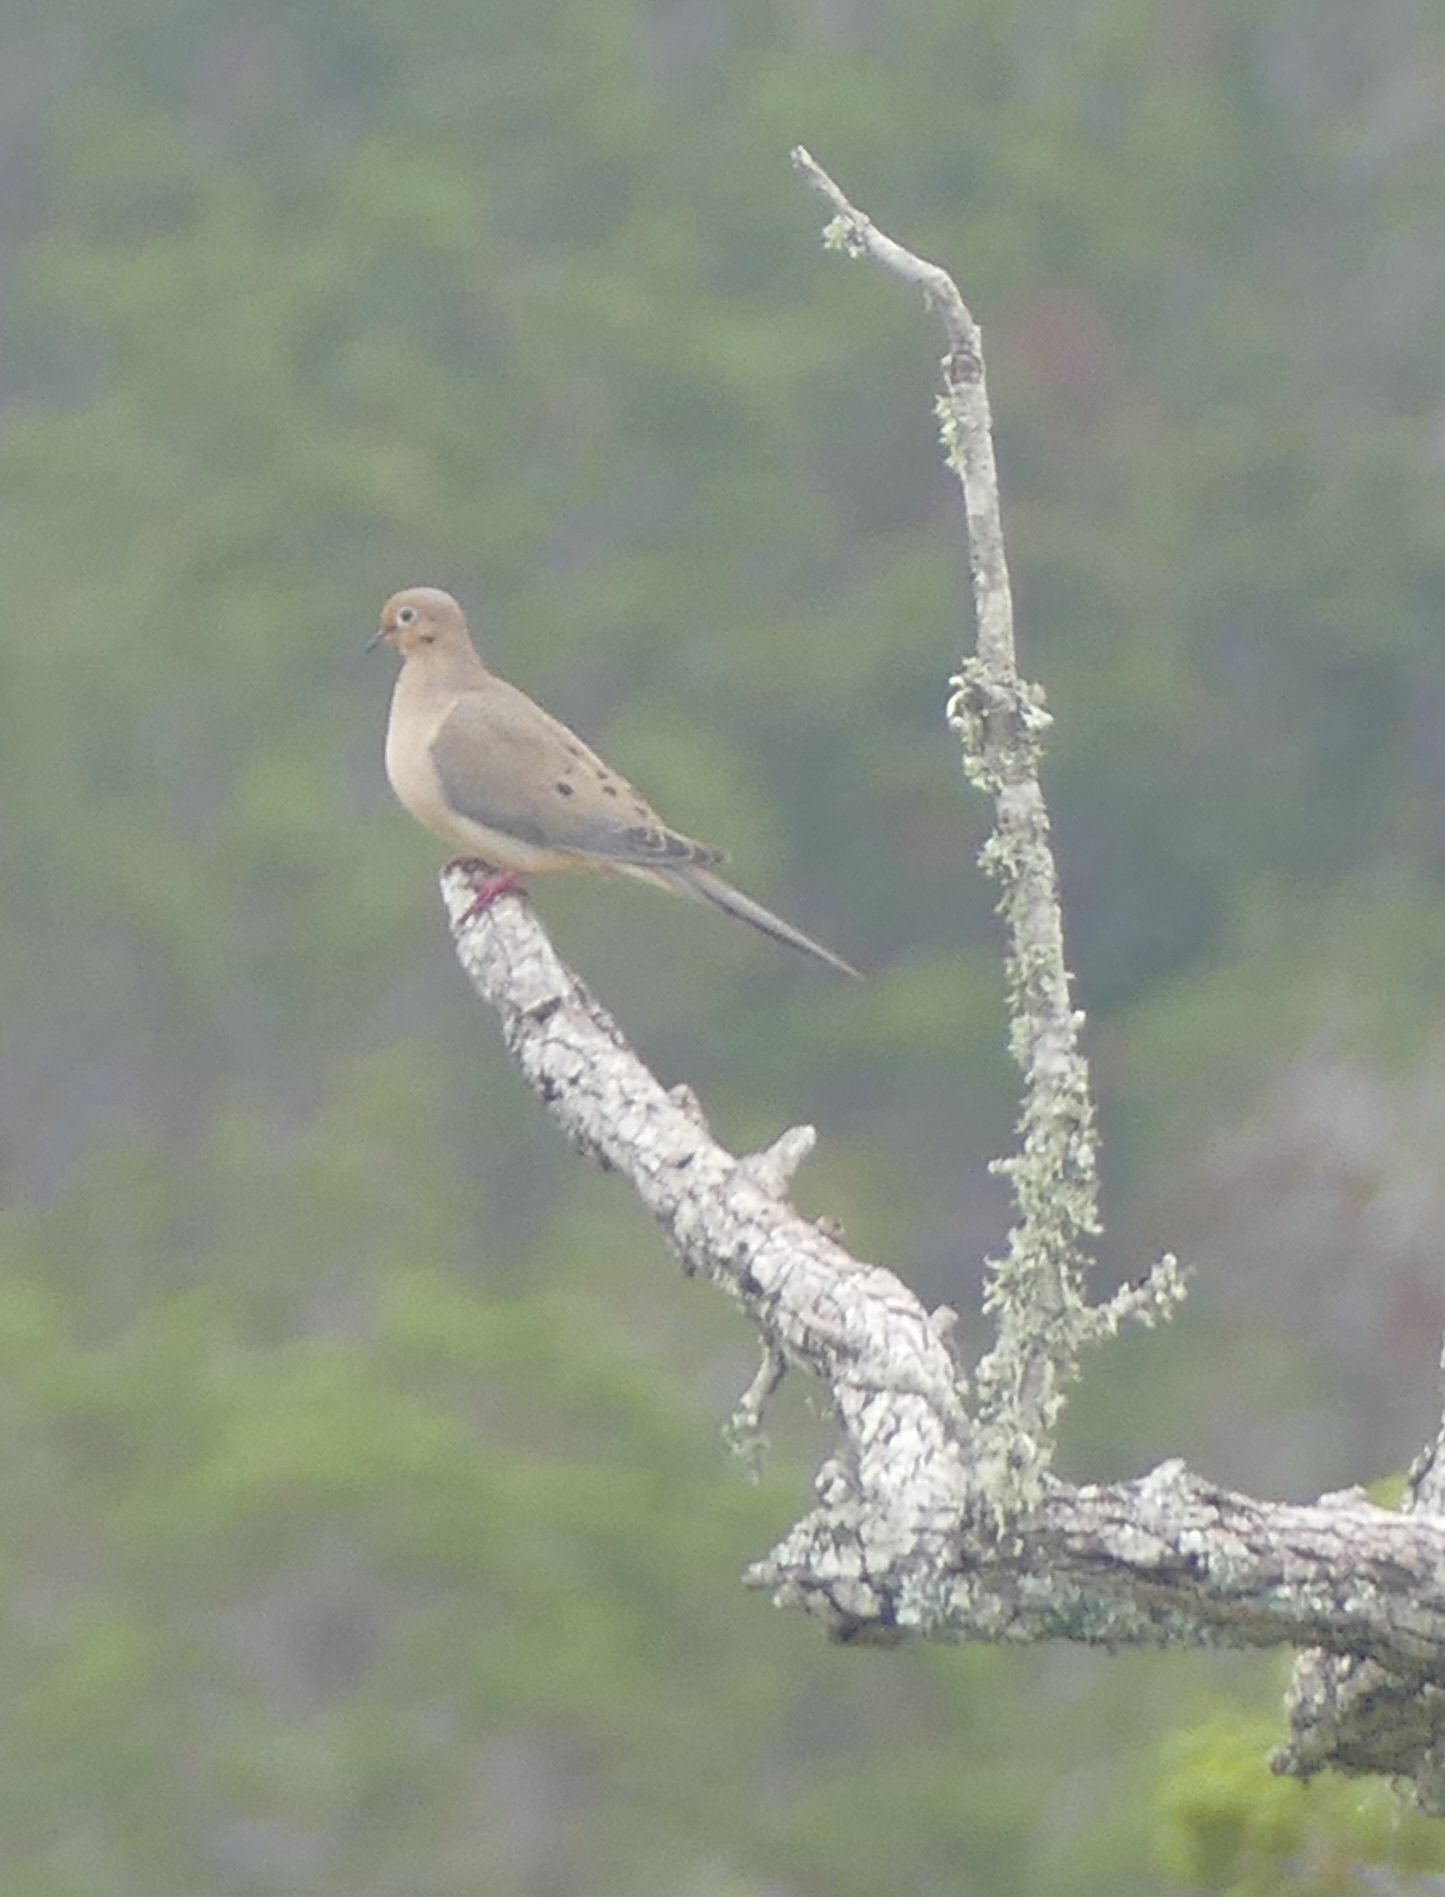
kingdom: Animalia
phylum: Chordata
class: Aves
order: Columbiformes
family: Columbidae
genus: Zenaida
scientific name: Zenaida macroura
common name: Mourning dove
